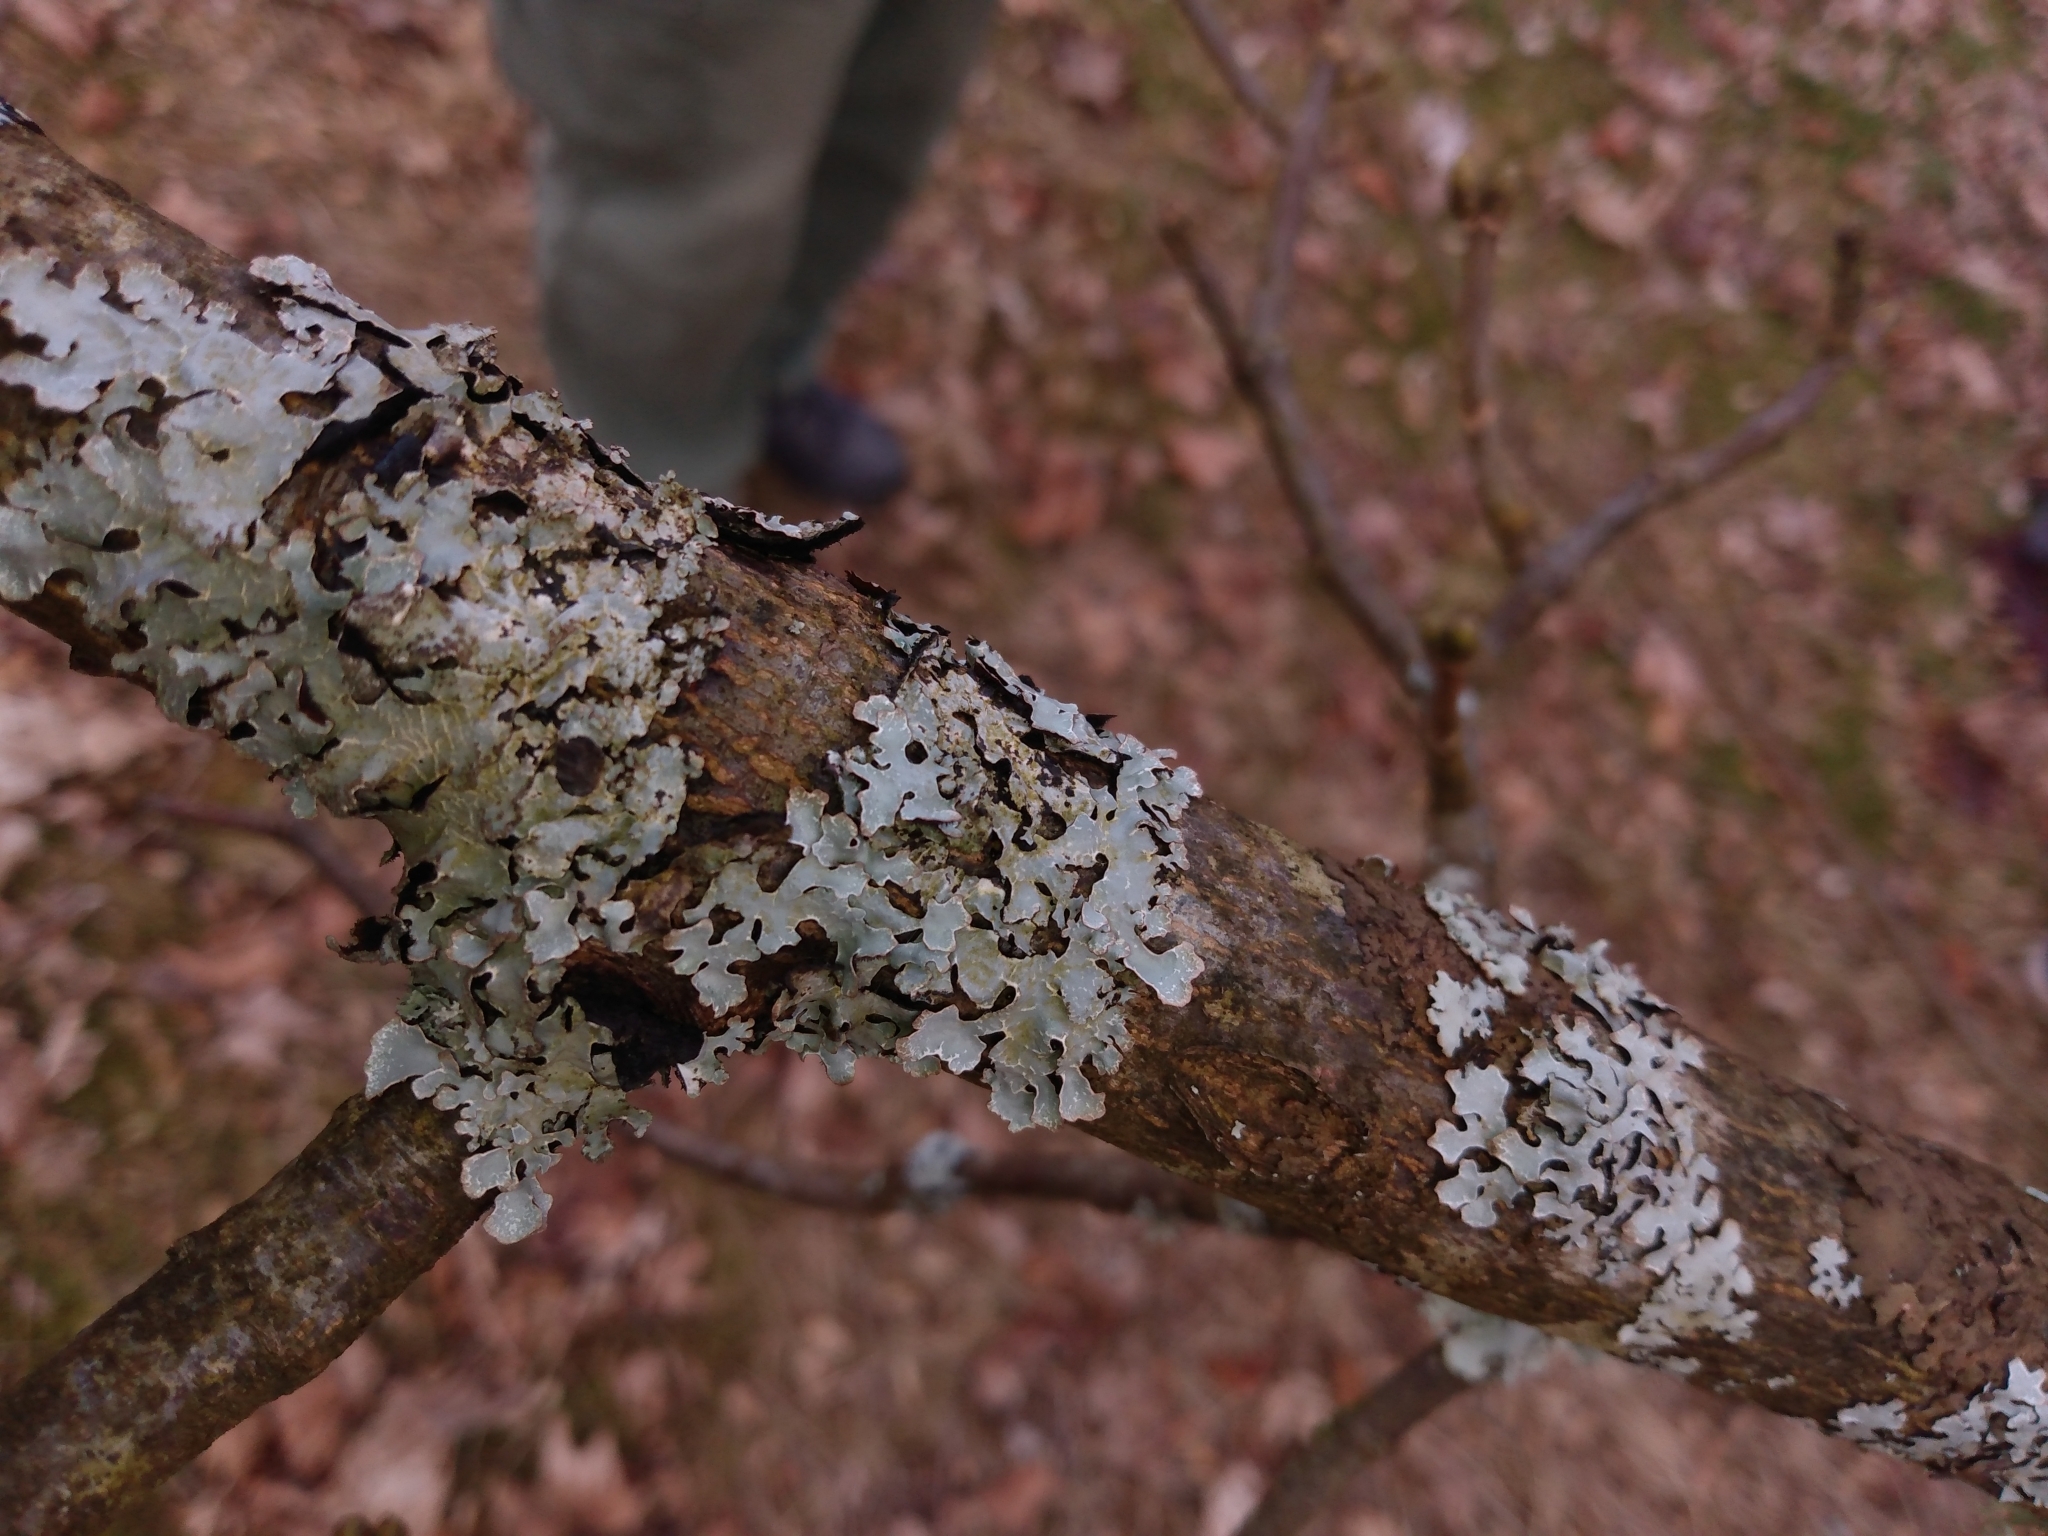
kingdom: Fungi
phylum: Ascomycota
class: Lecanoromycetes
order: Lecanorales
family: Parmeliaceae
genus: Parmelia
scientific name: Parmelia sulcata
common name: Netted shield lichen
